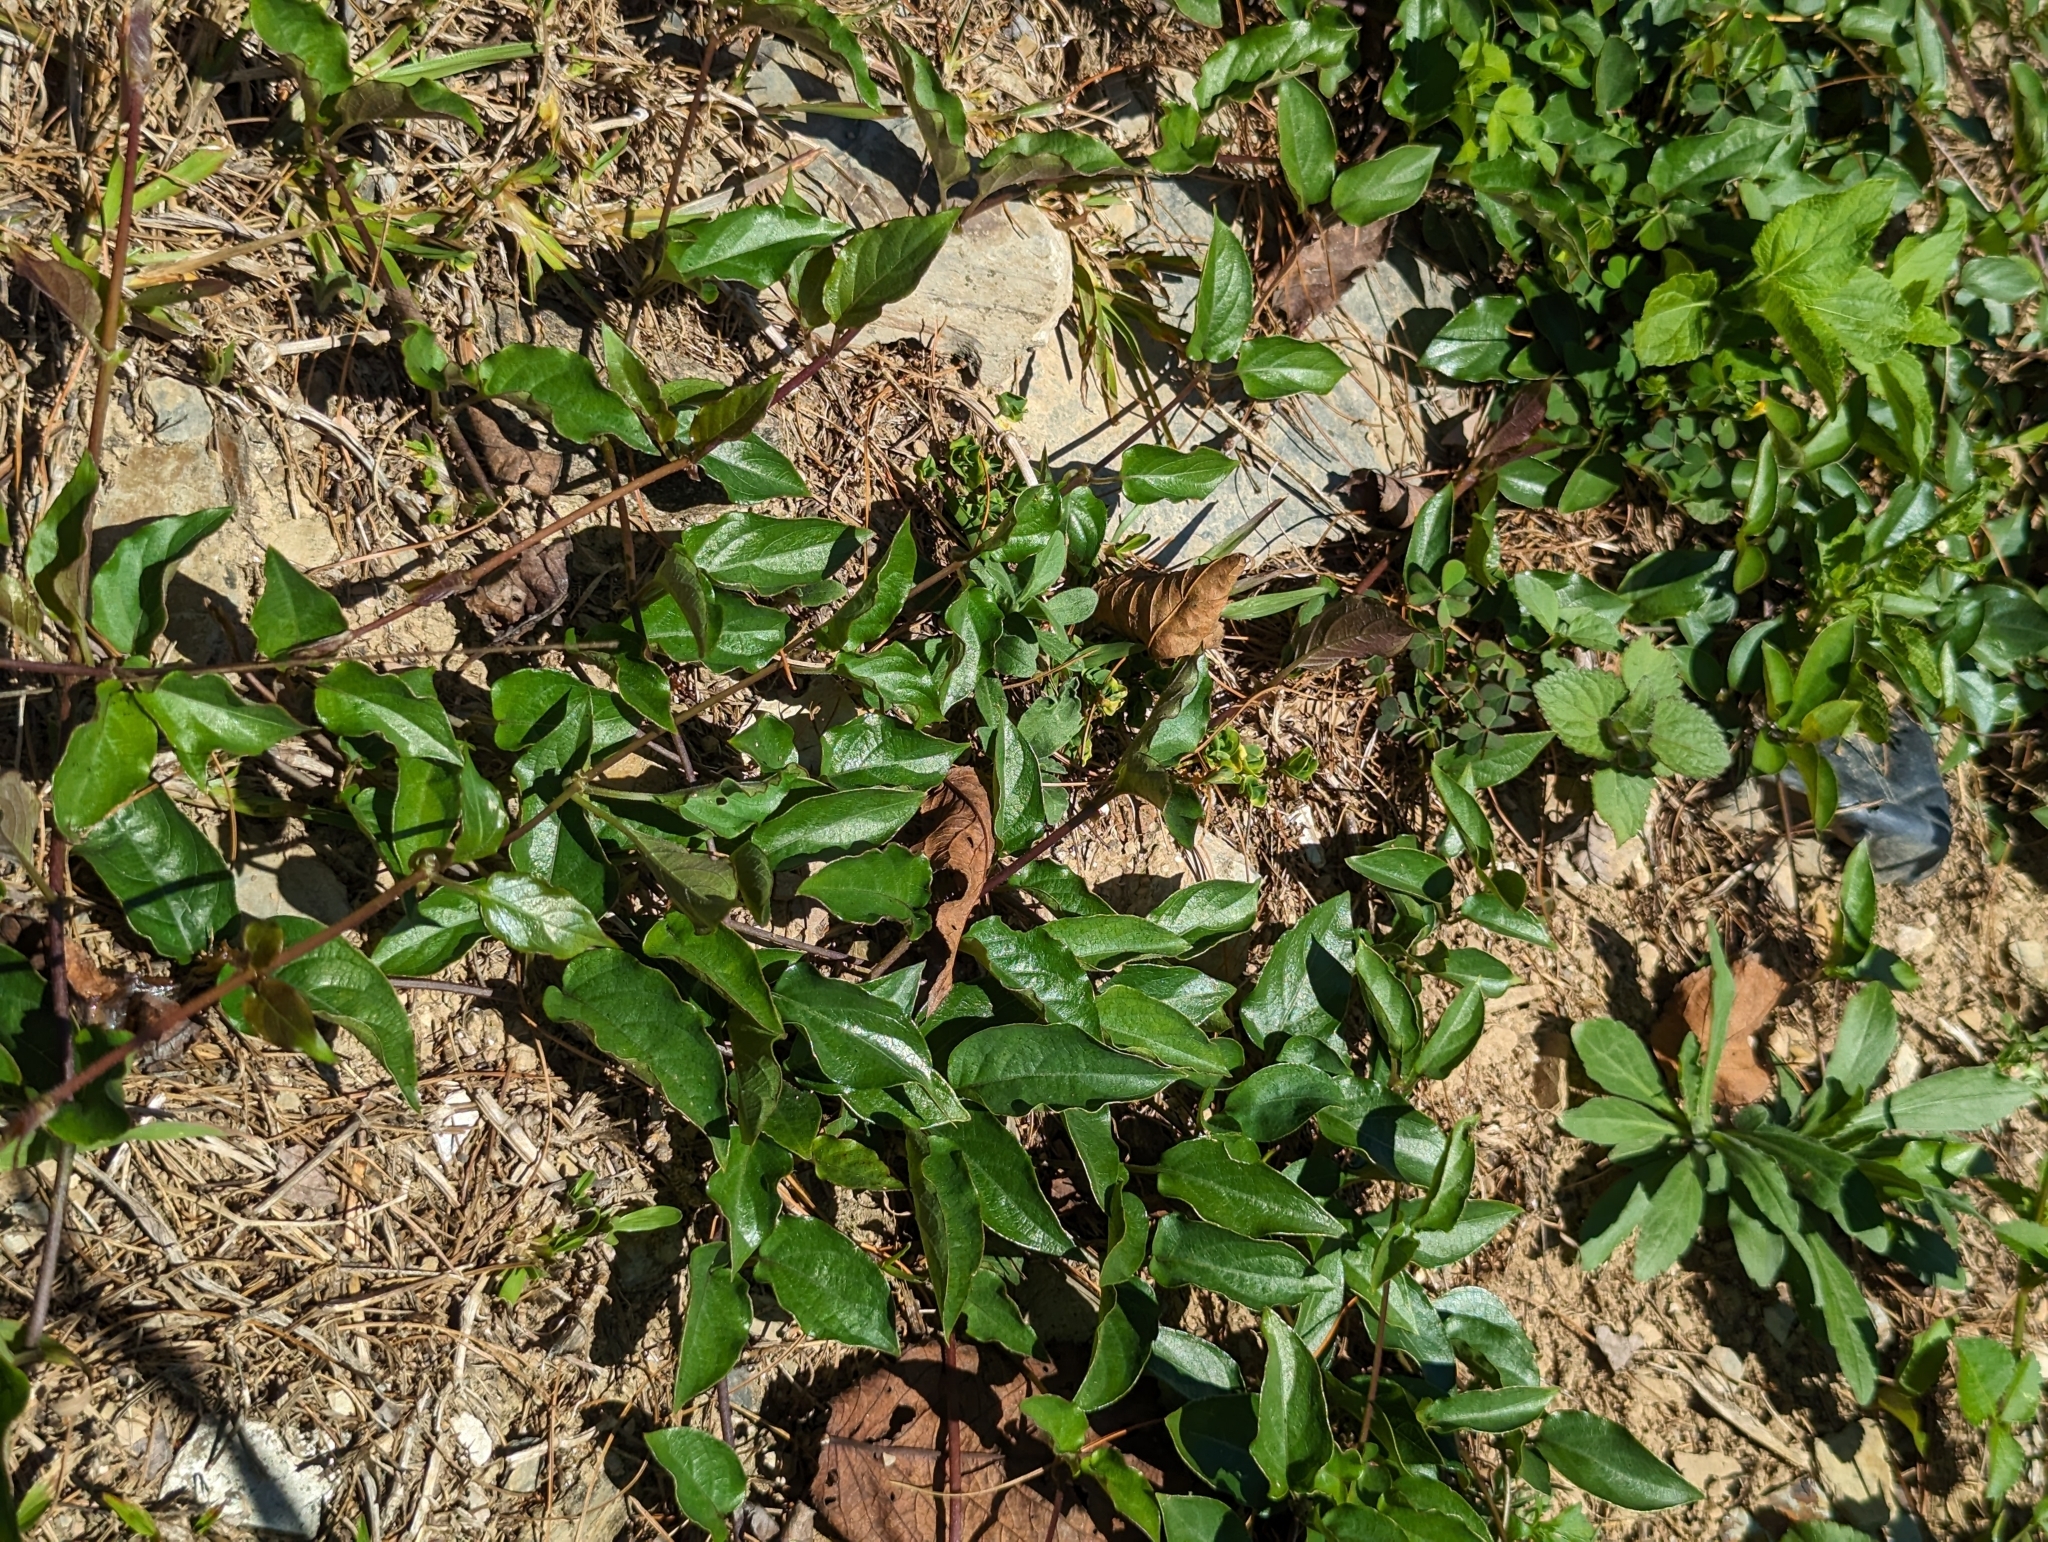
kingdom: Plantae
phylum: Tracheophyta
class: Magnoliopsida
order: Gentianales
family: Rubiaceae
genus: Paederia
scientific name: Paederia foetida
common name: Stinkvine
